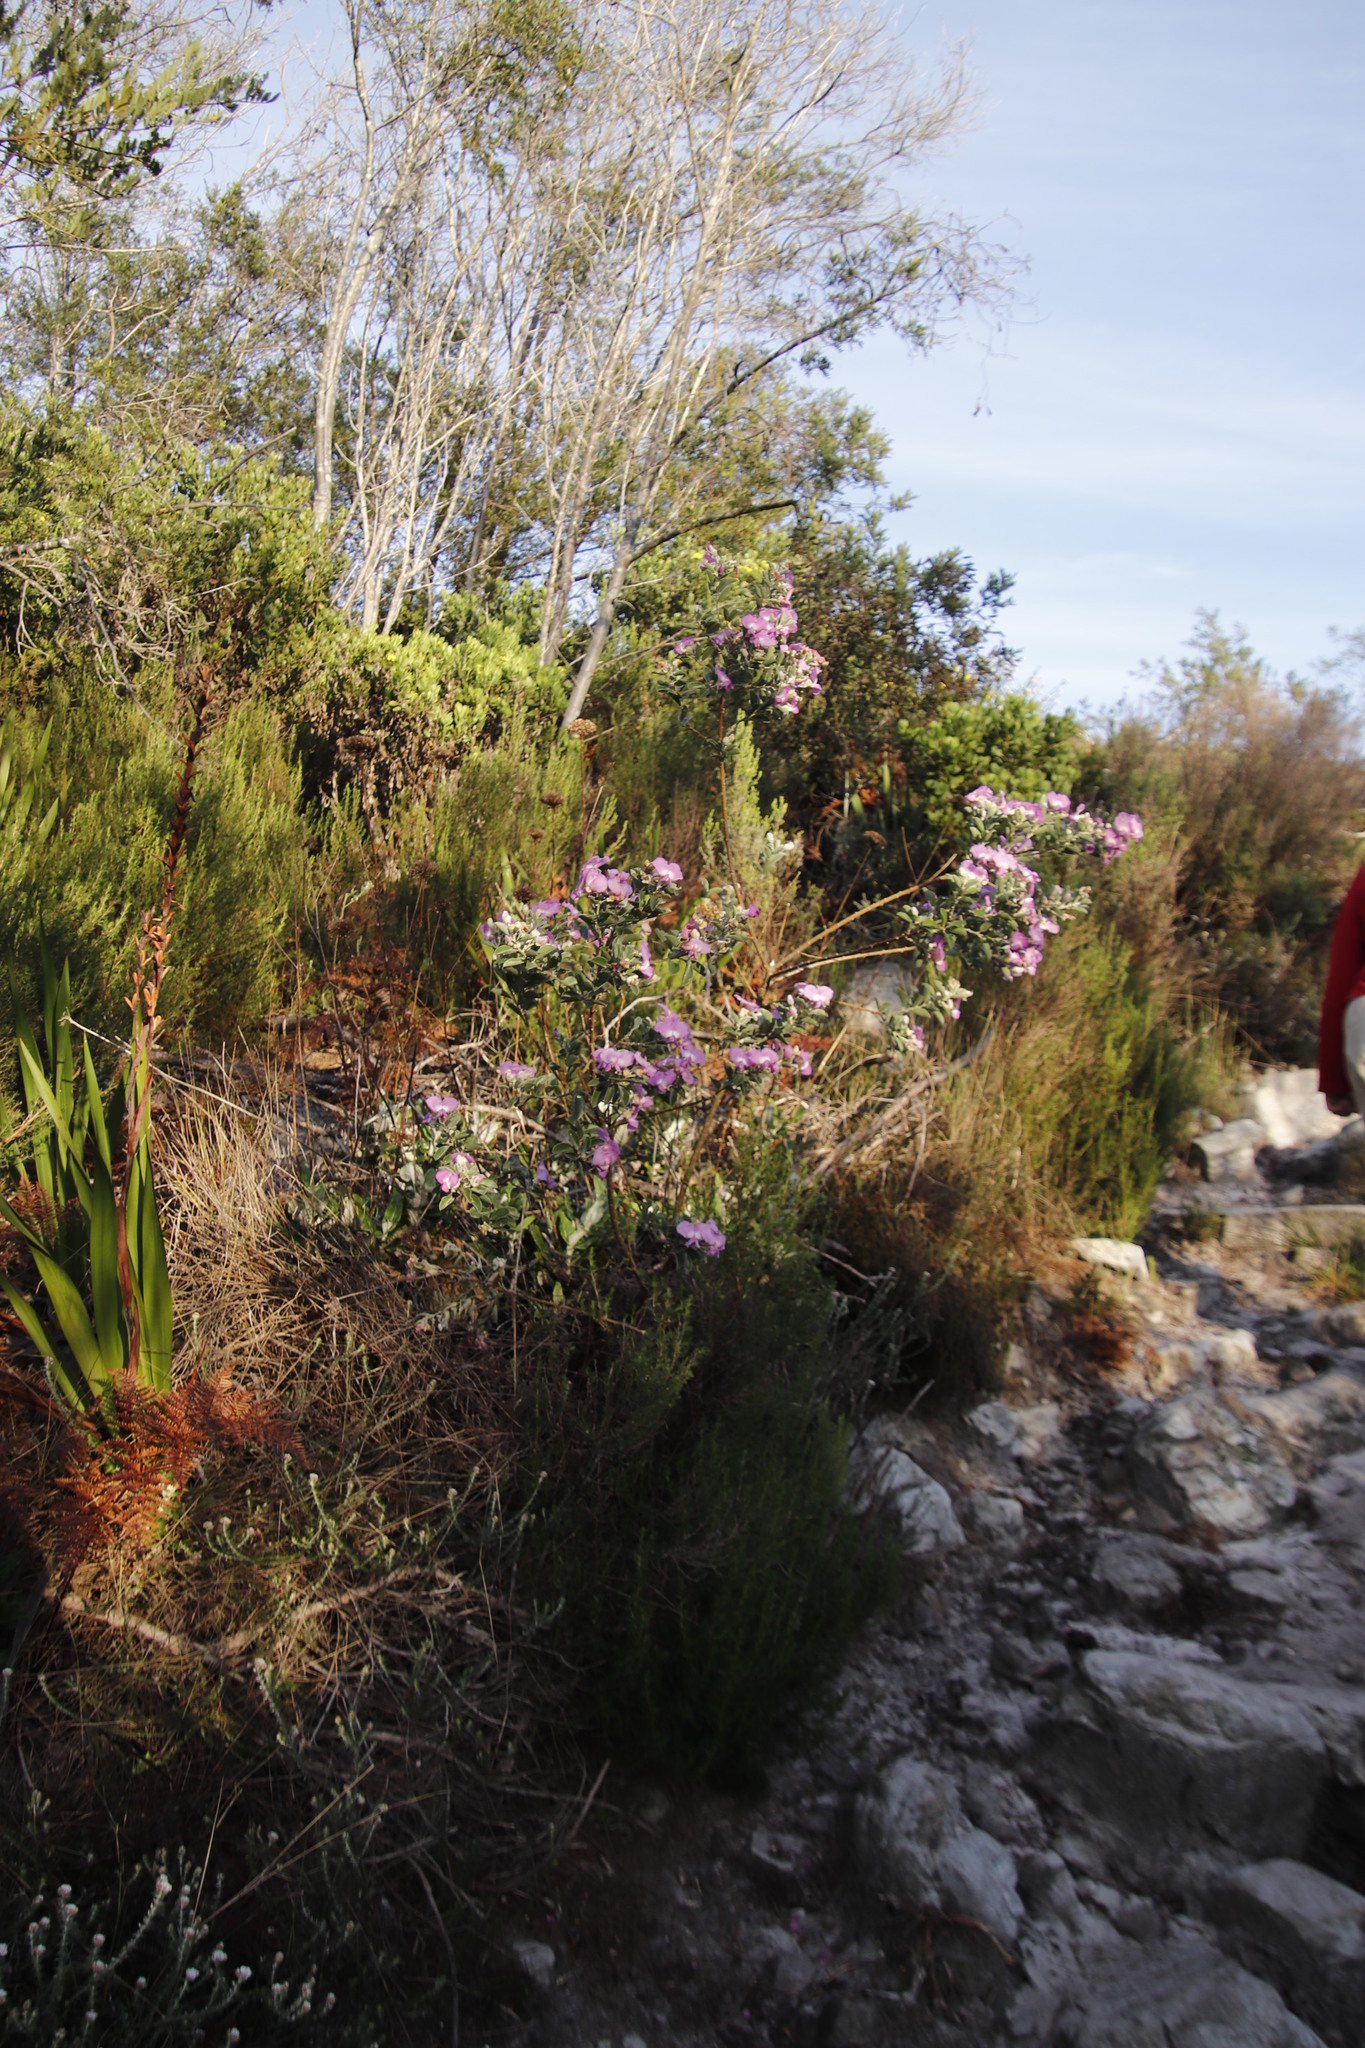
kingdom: Plantae
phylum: Tracheophyta
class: Magnoliopsida
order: Fabales
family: Fabaceae
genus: Podalyria
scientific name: Podalyria calyptrata
